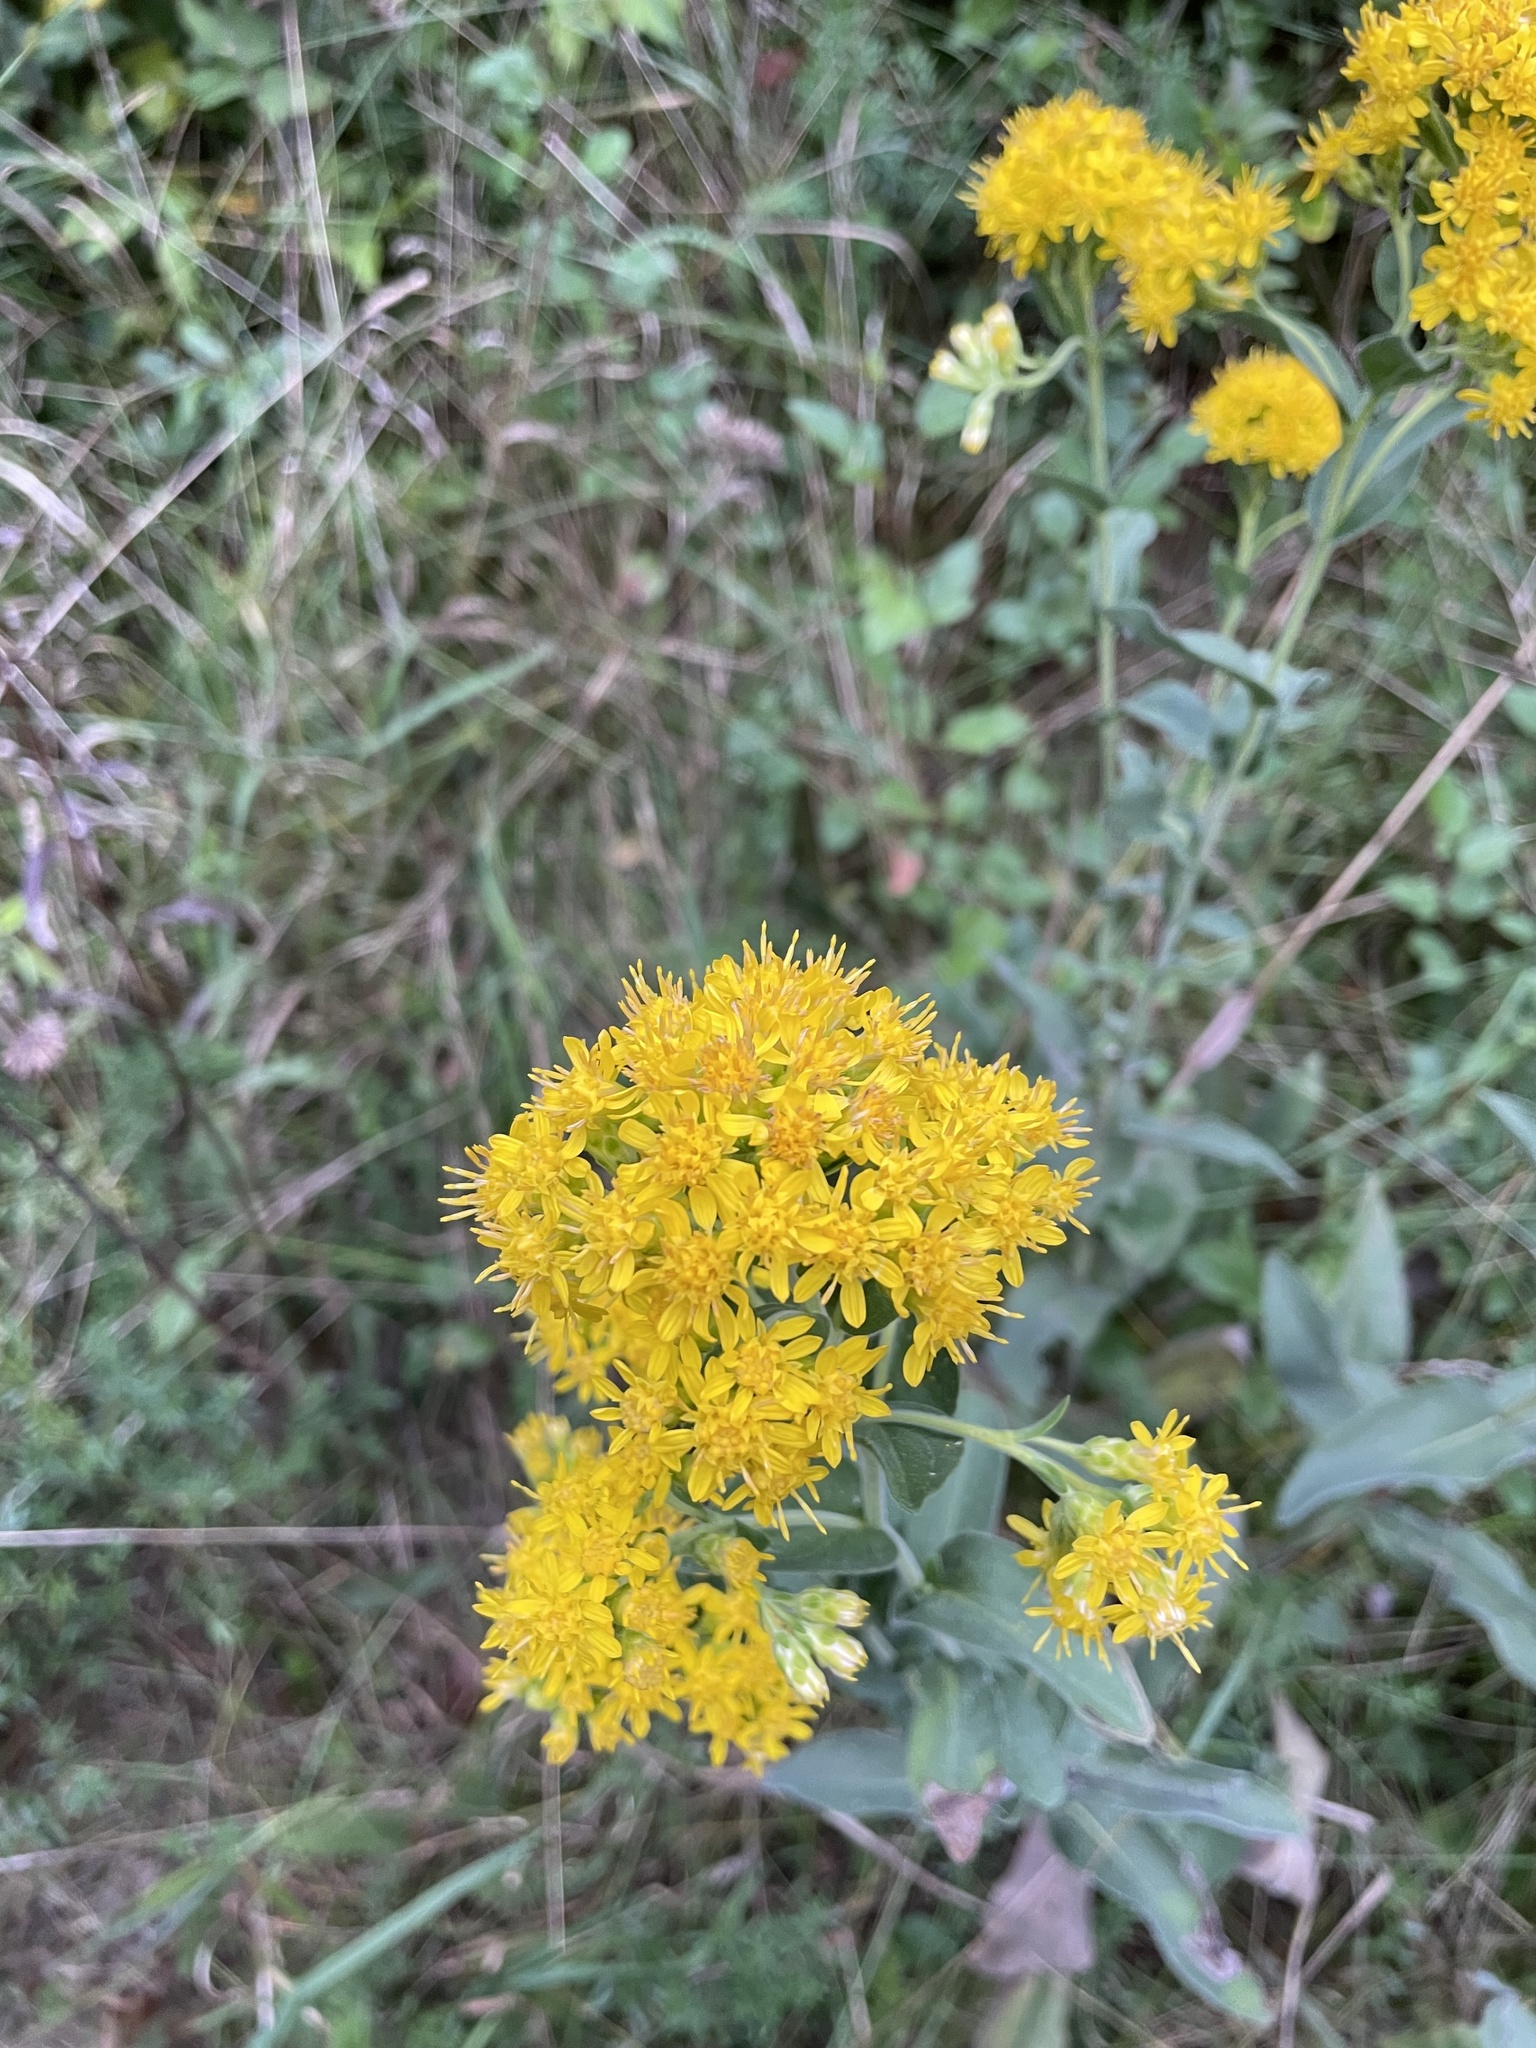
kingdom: Plantae
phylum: Tracheophyta
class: Magnoliopsida
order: Asterales
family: Asteraceae
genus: Solidago
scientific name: Solidago rigida
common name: Rigid goldenrod
